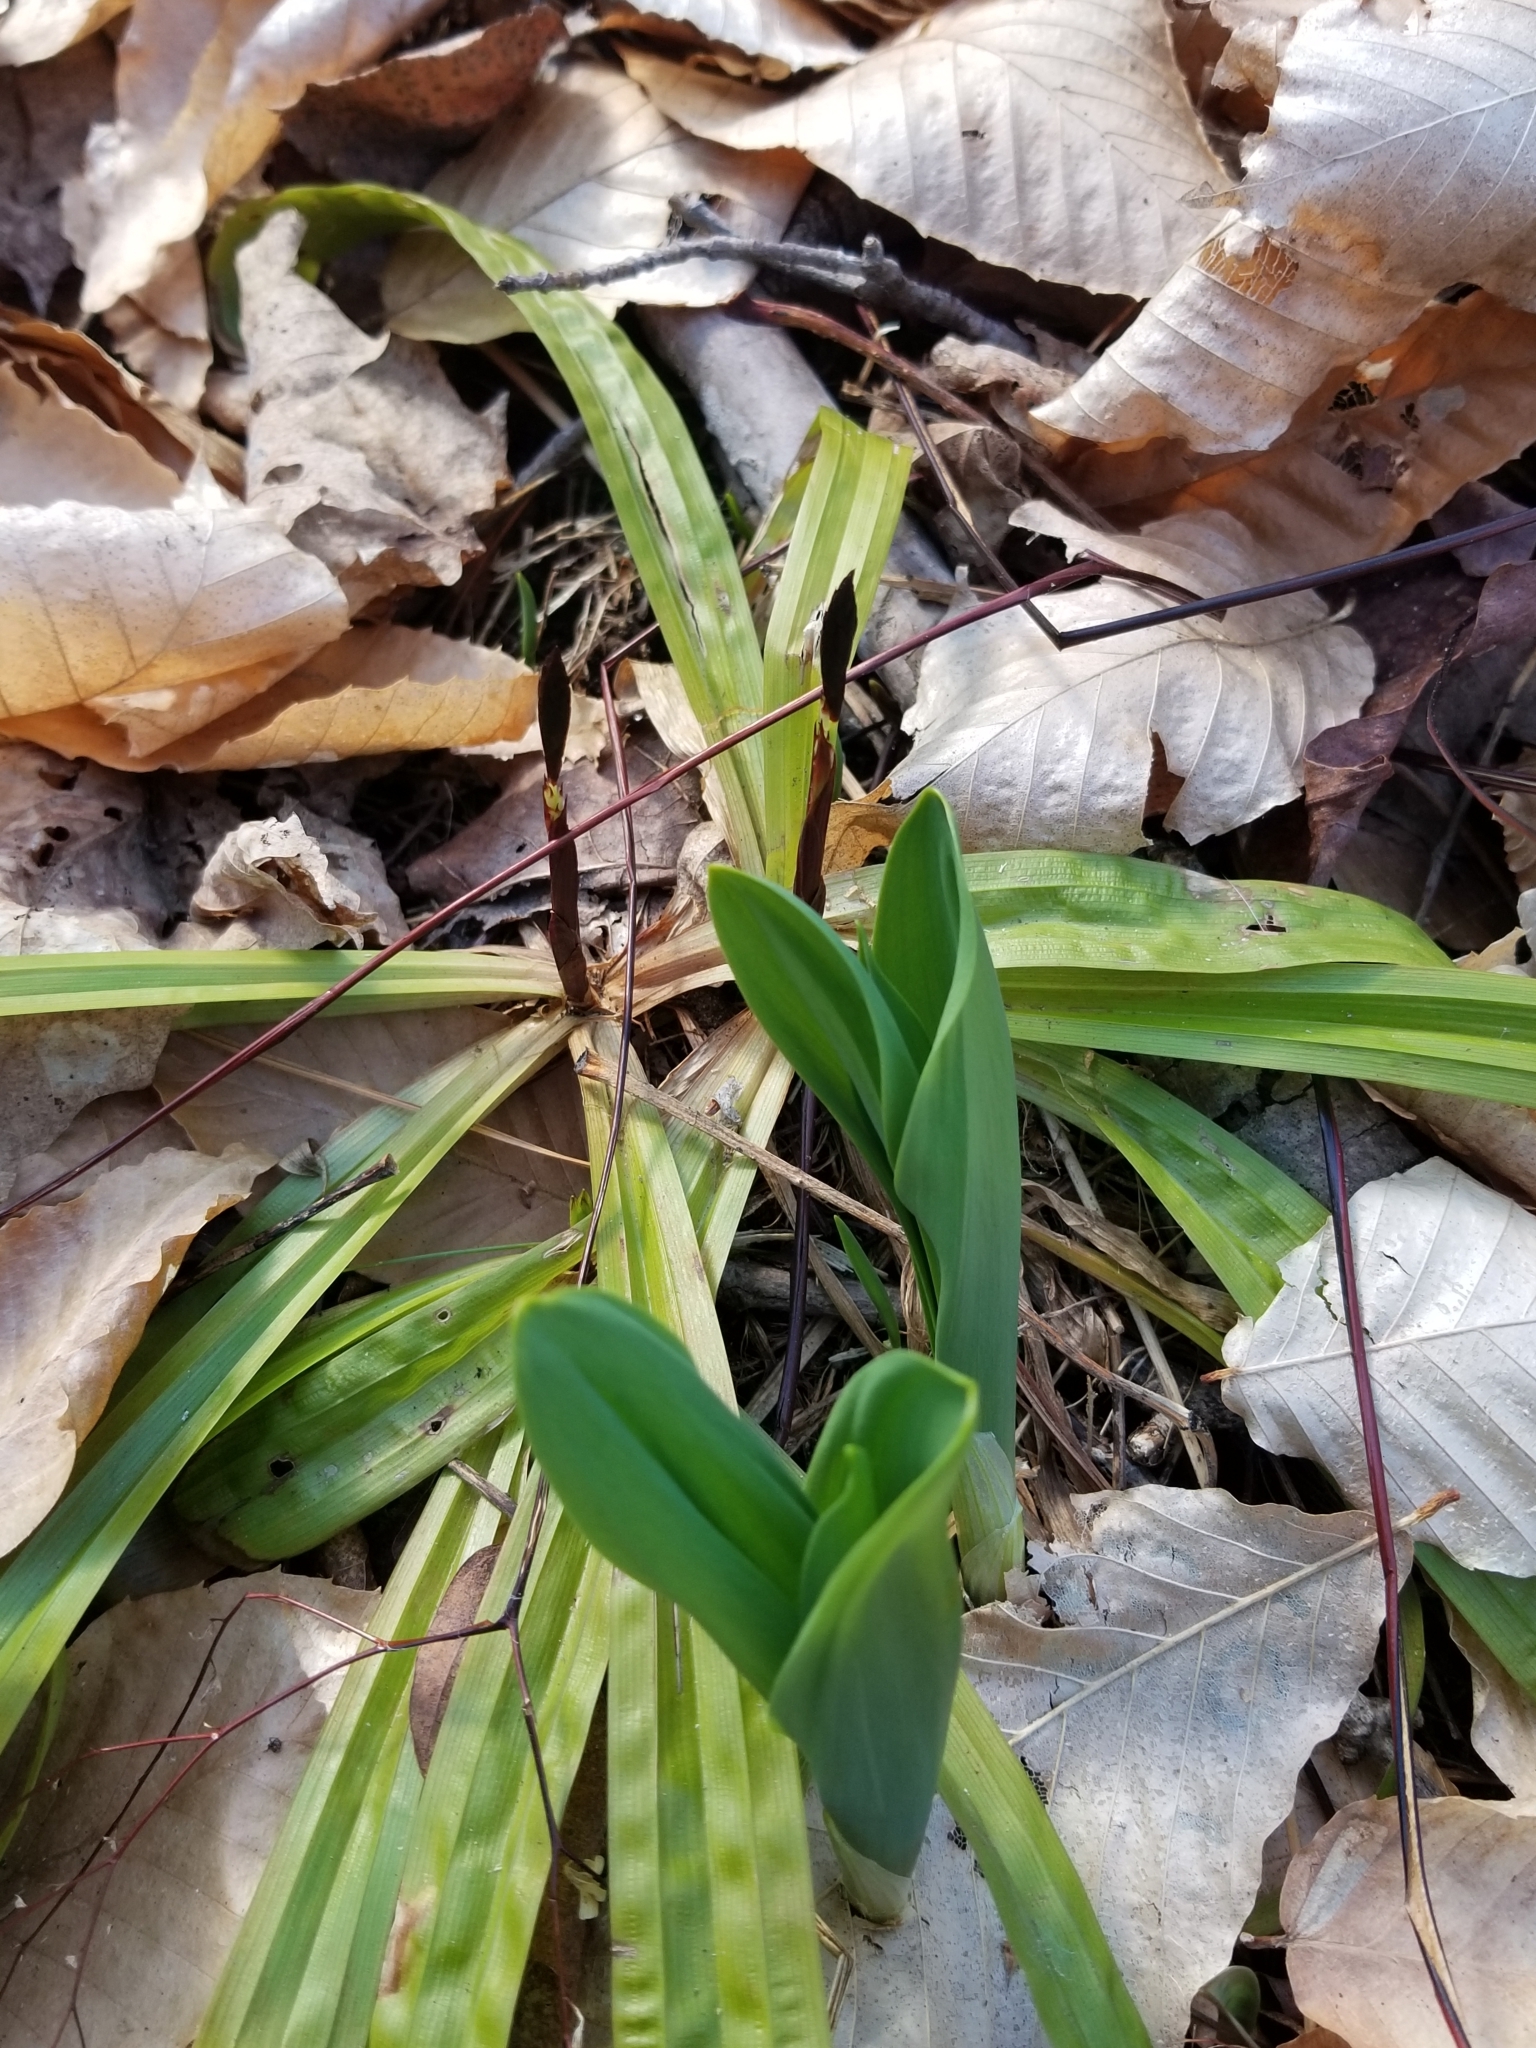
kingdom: Plantae
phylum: Tracheophyta
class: Liliopsida
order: Poales
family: Cyperaceae
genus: Carex
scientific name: Carex plantaginea
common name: Plantain-leaved sedge
